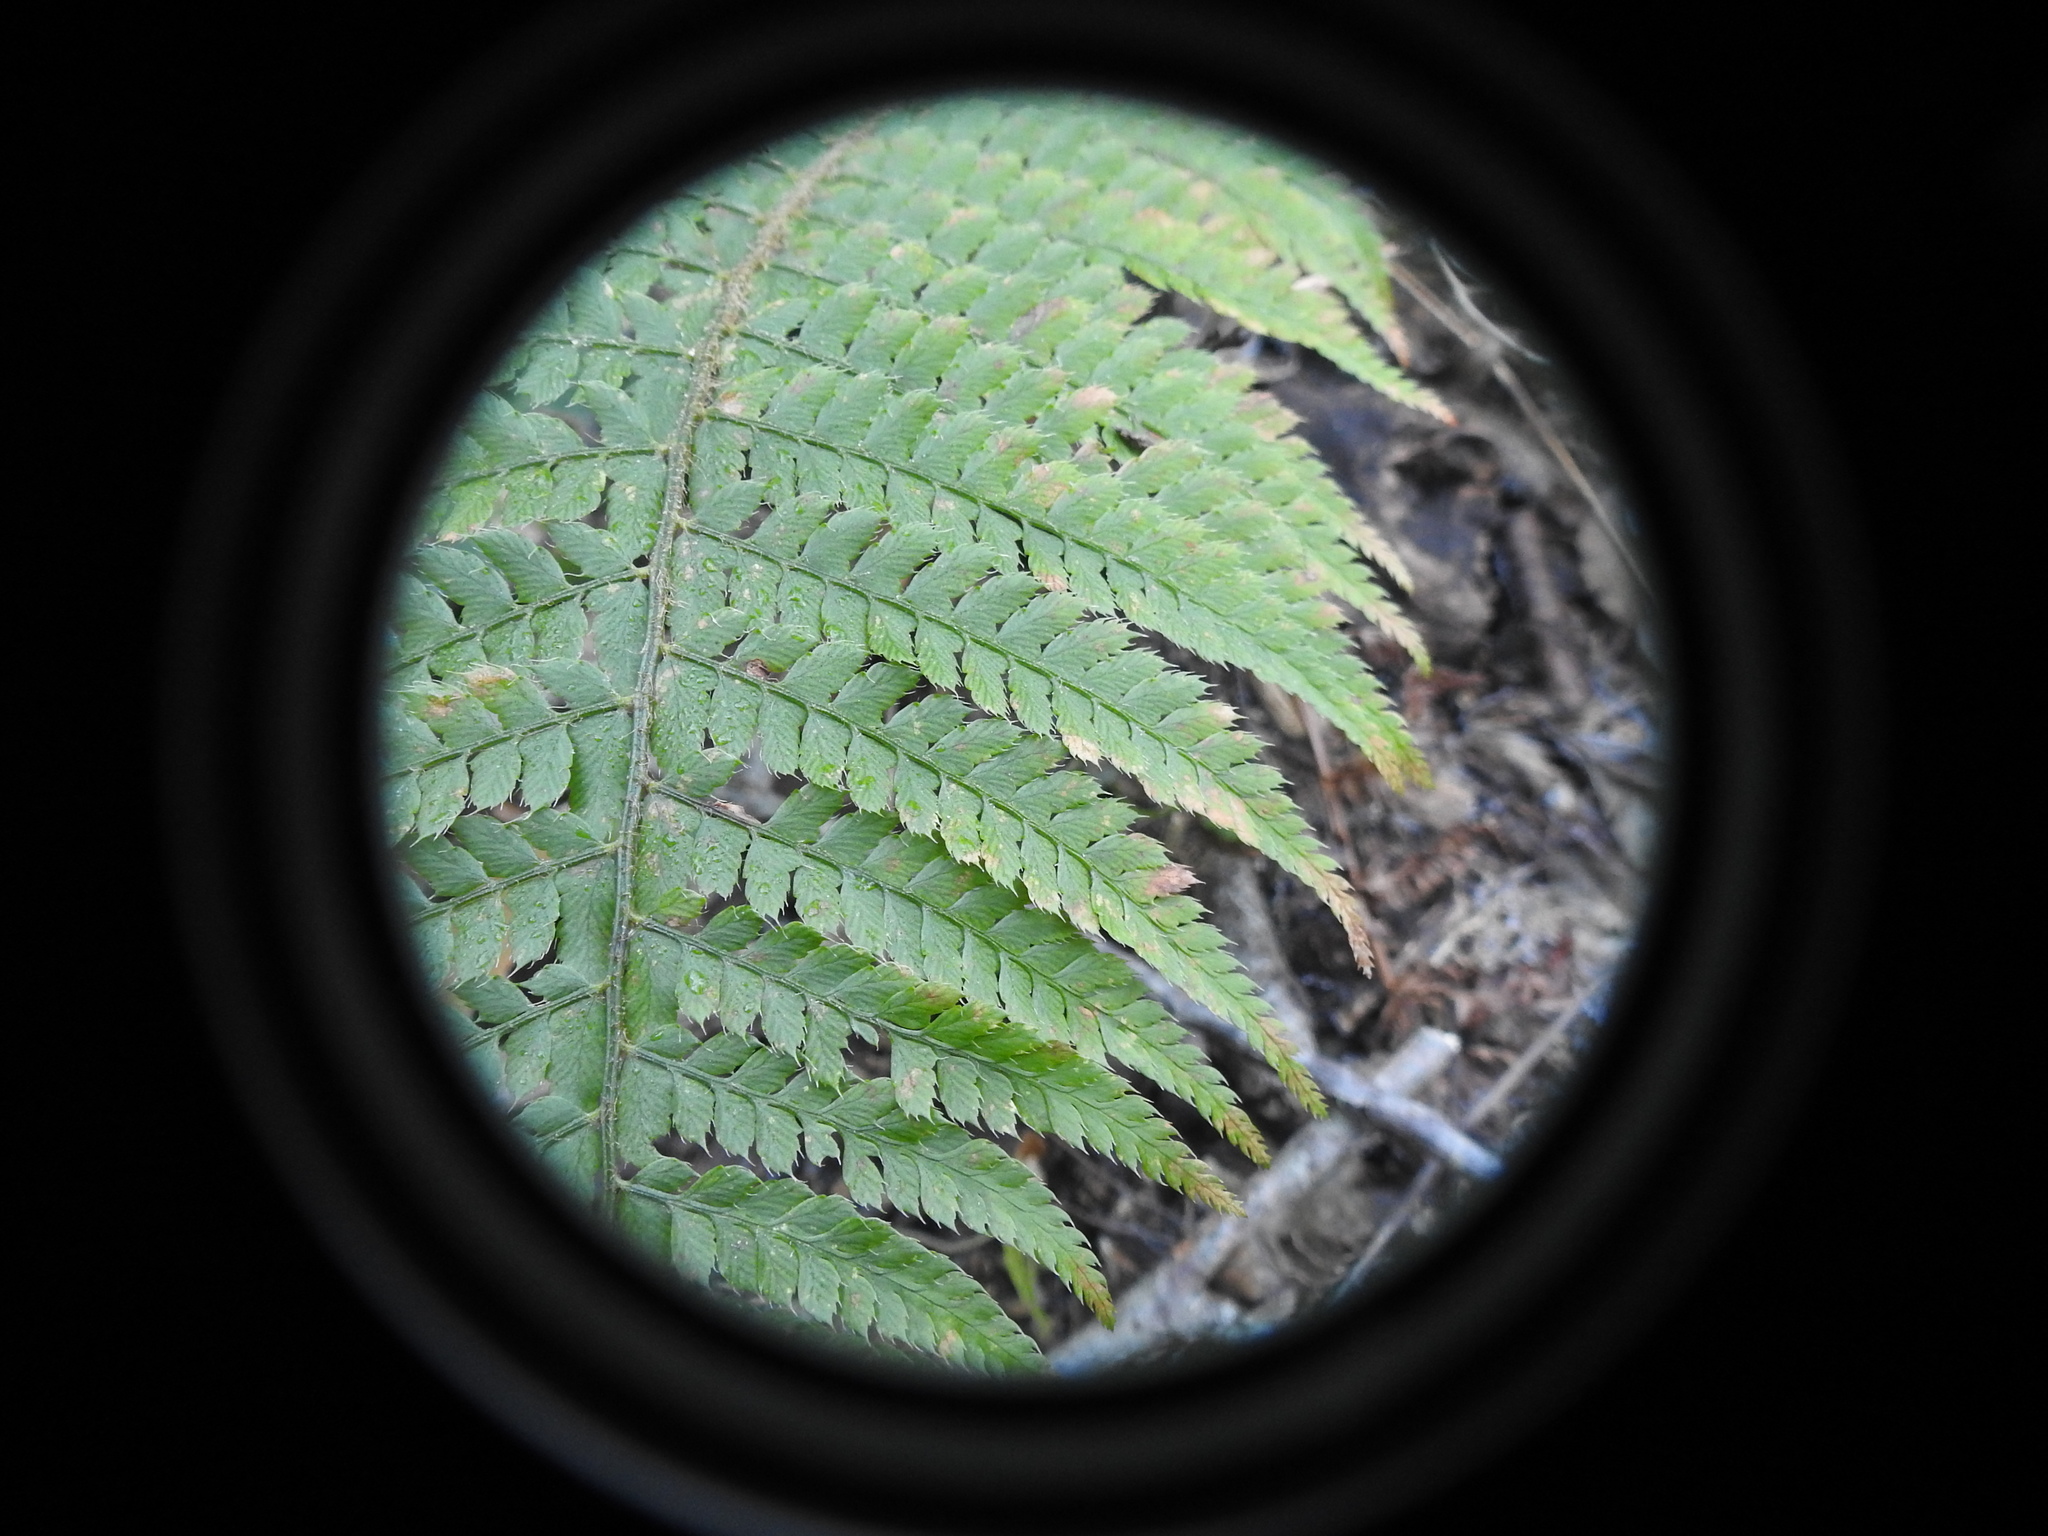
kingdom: Plantae
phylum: Tracheophyta
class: Polypodiopsida
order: Polypodiales
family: Dryopteridaceae
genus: Polystichum
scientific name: Polystichum setiferum
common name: Soft shield-fern
